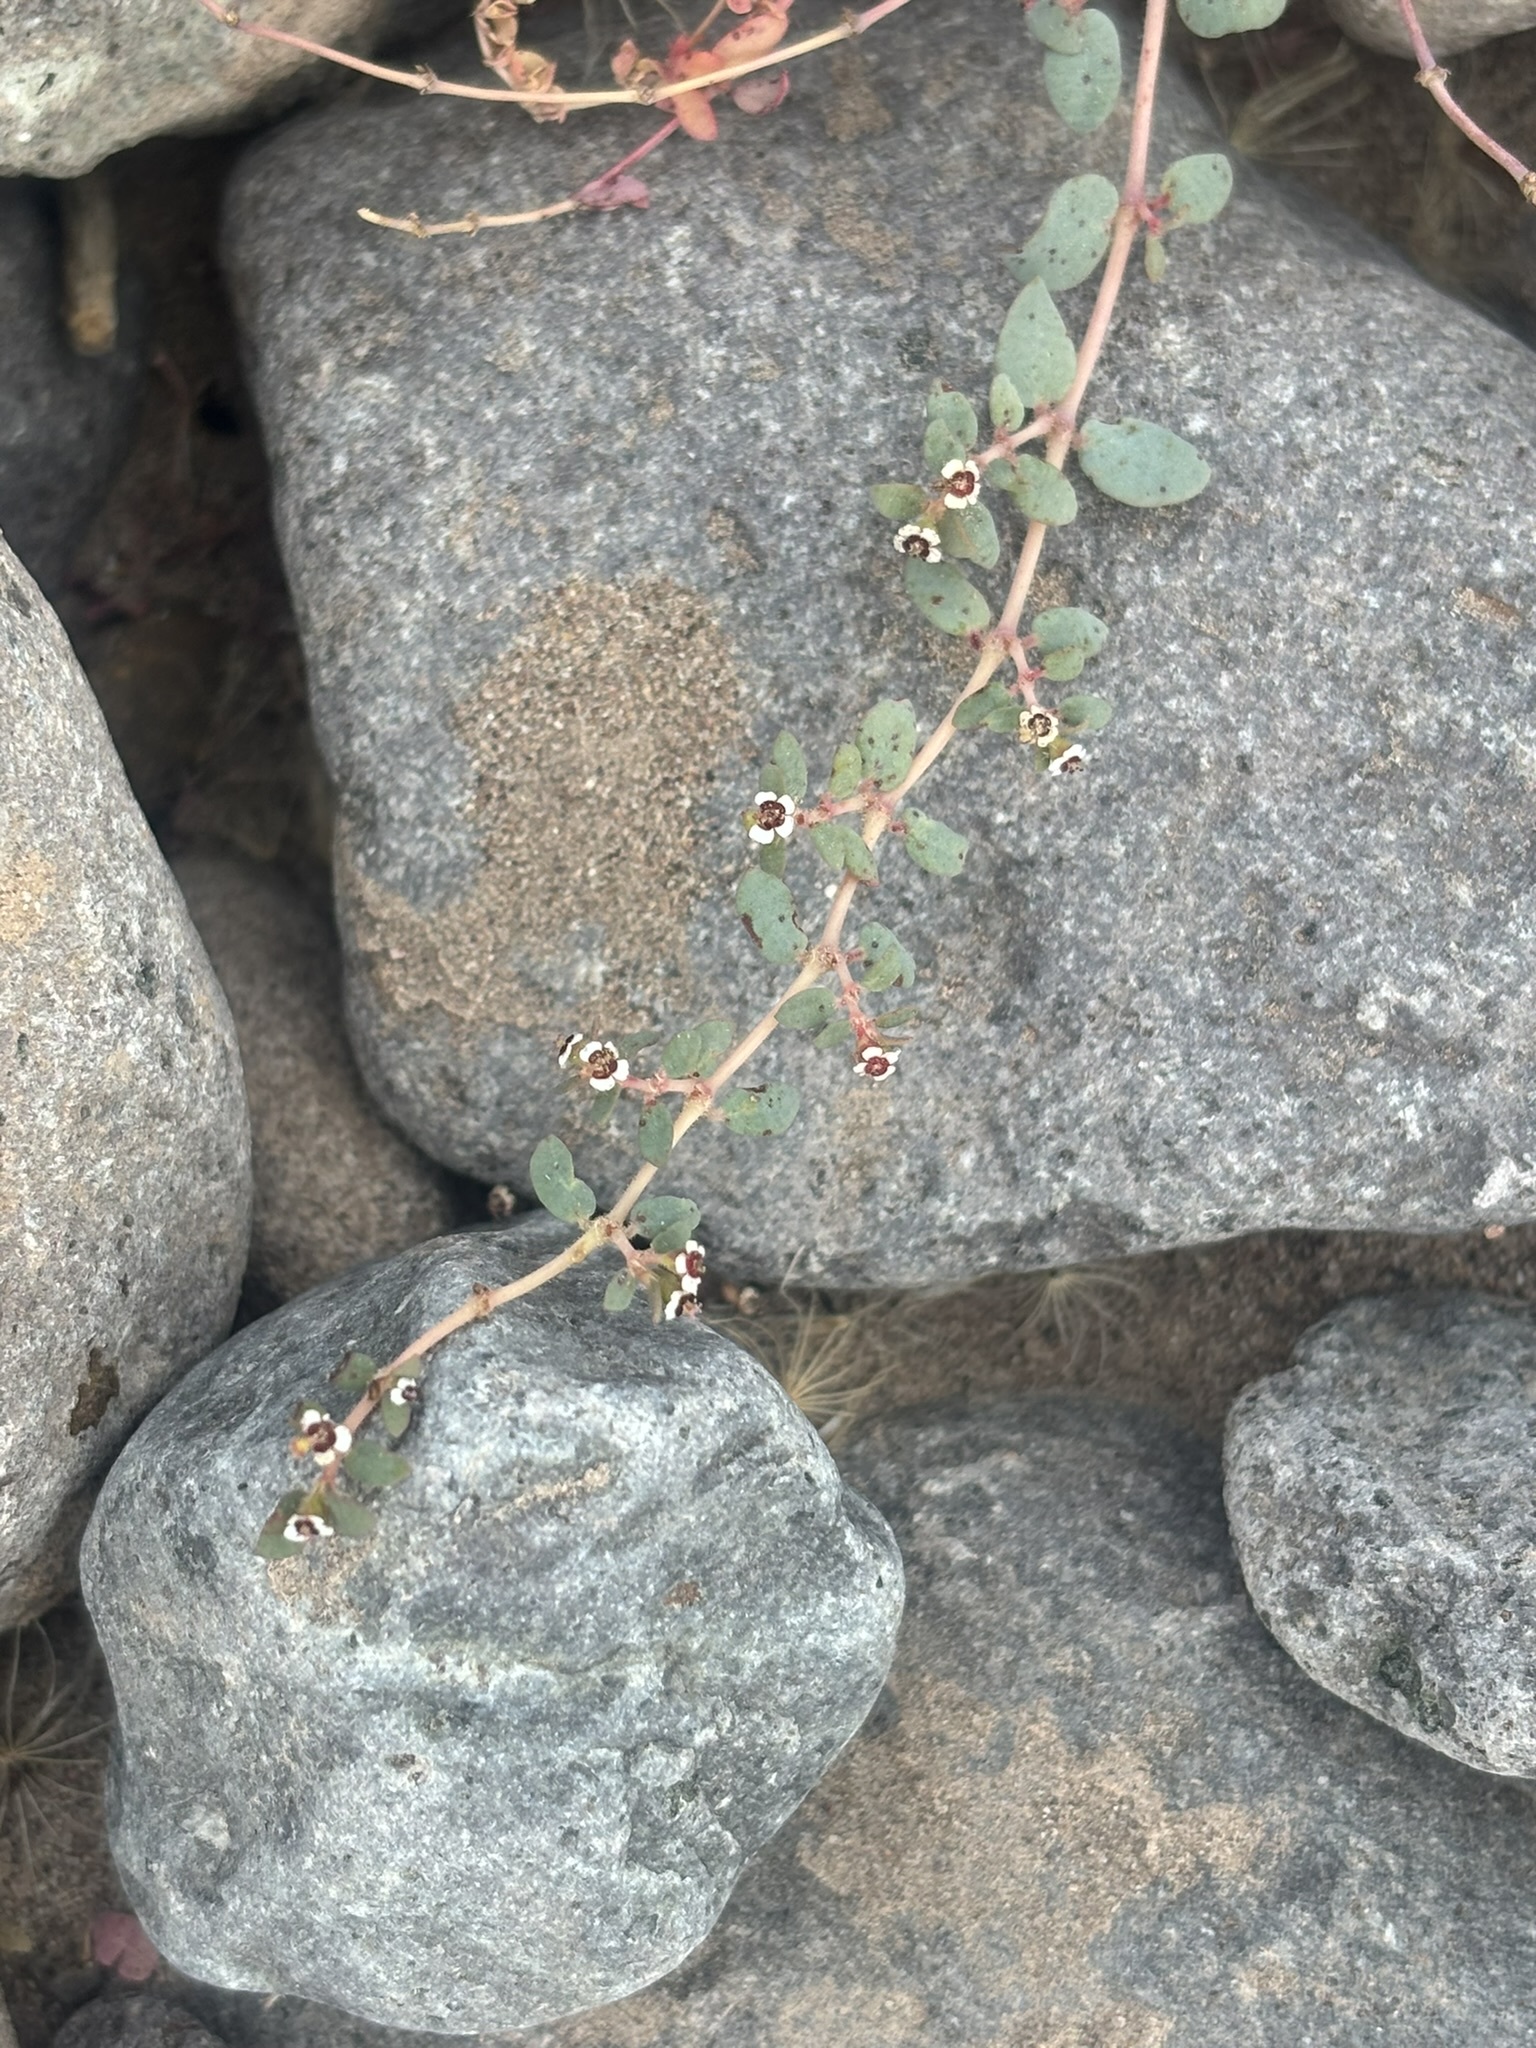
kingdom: Plantae
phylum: Tracheophyta
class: Magnoliopsida
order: Malpighiales
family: Euphorbiaceae
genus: Euphorbia
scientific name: Euphorbia polycarpa
